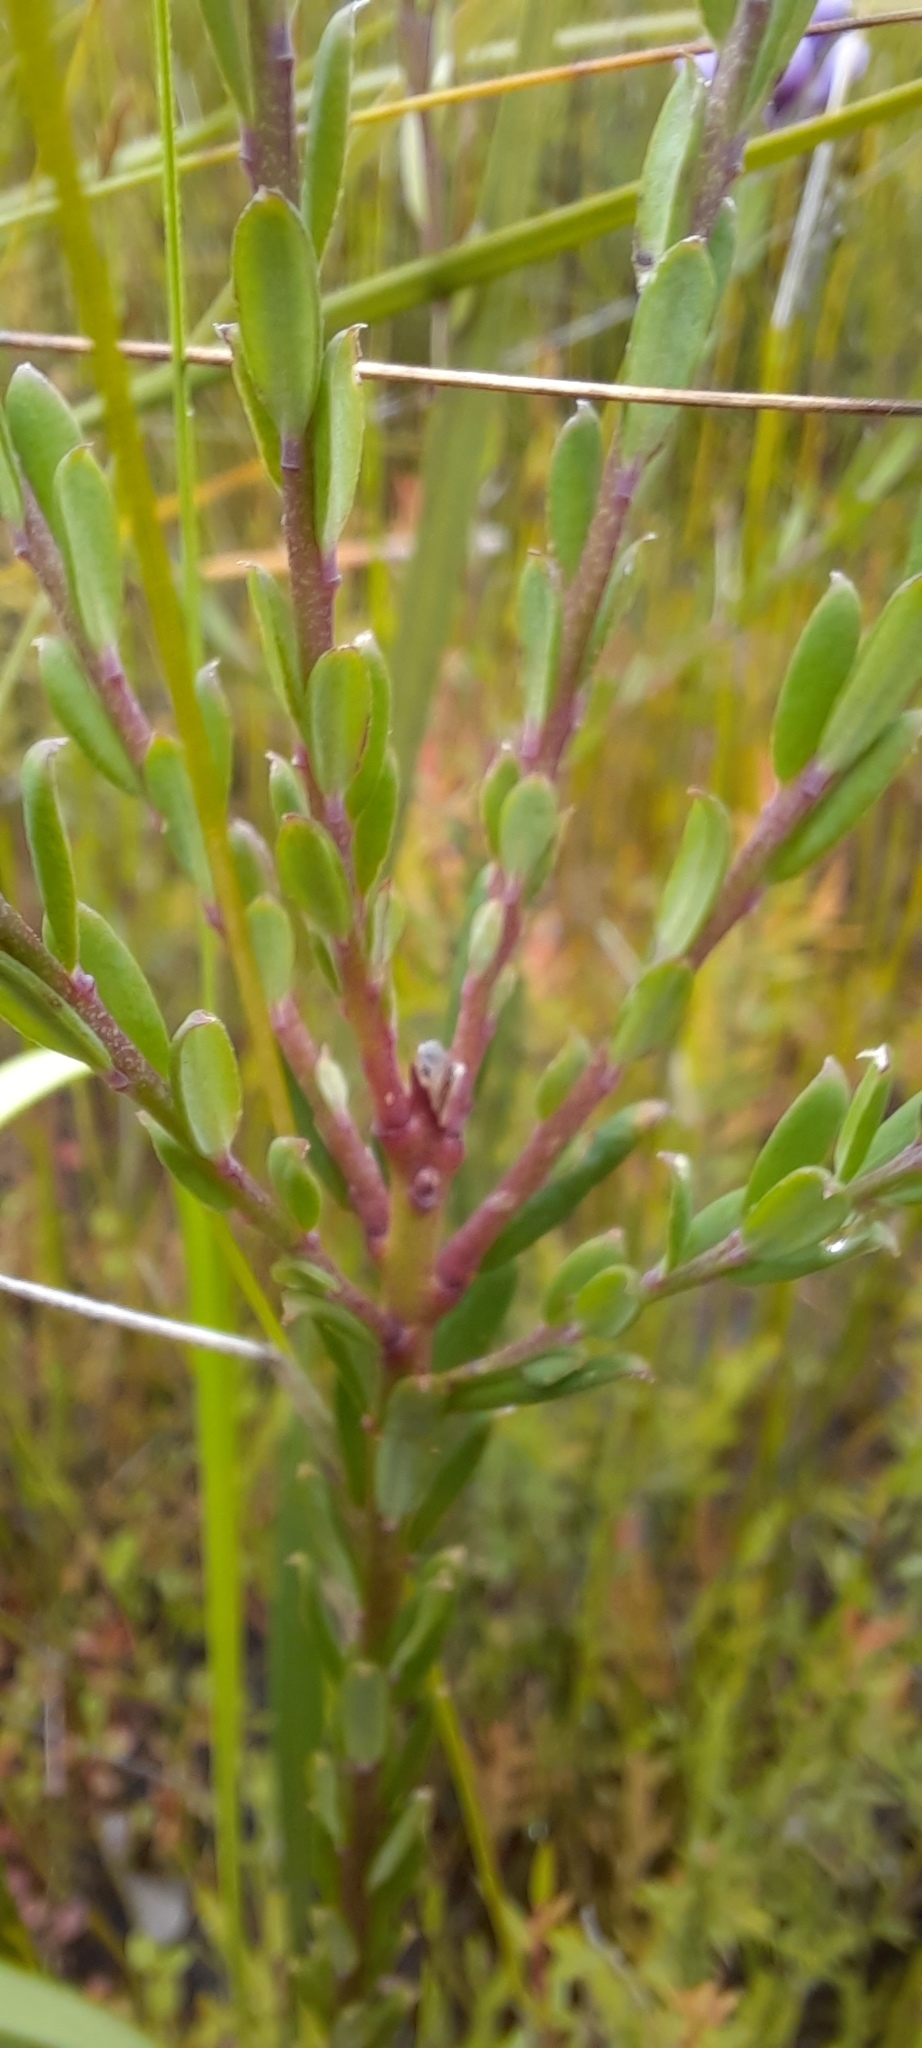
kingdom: Plantae
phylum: Tracheophyta
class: Magnoliopsida
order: Fabales
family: Polygalaceae
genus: Comesperma
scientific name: Comesperma ericinum
